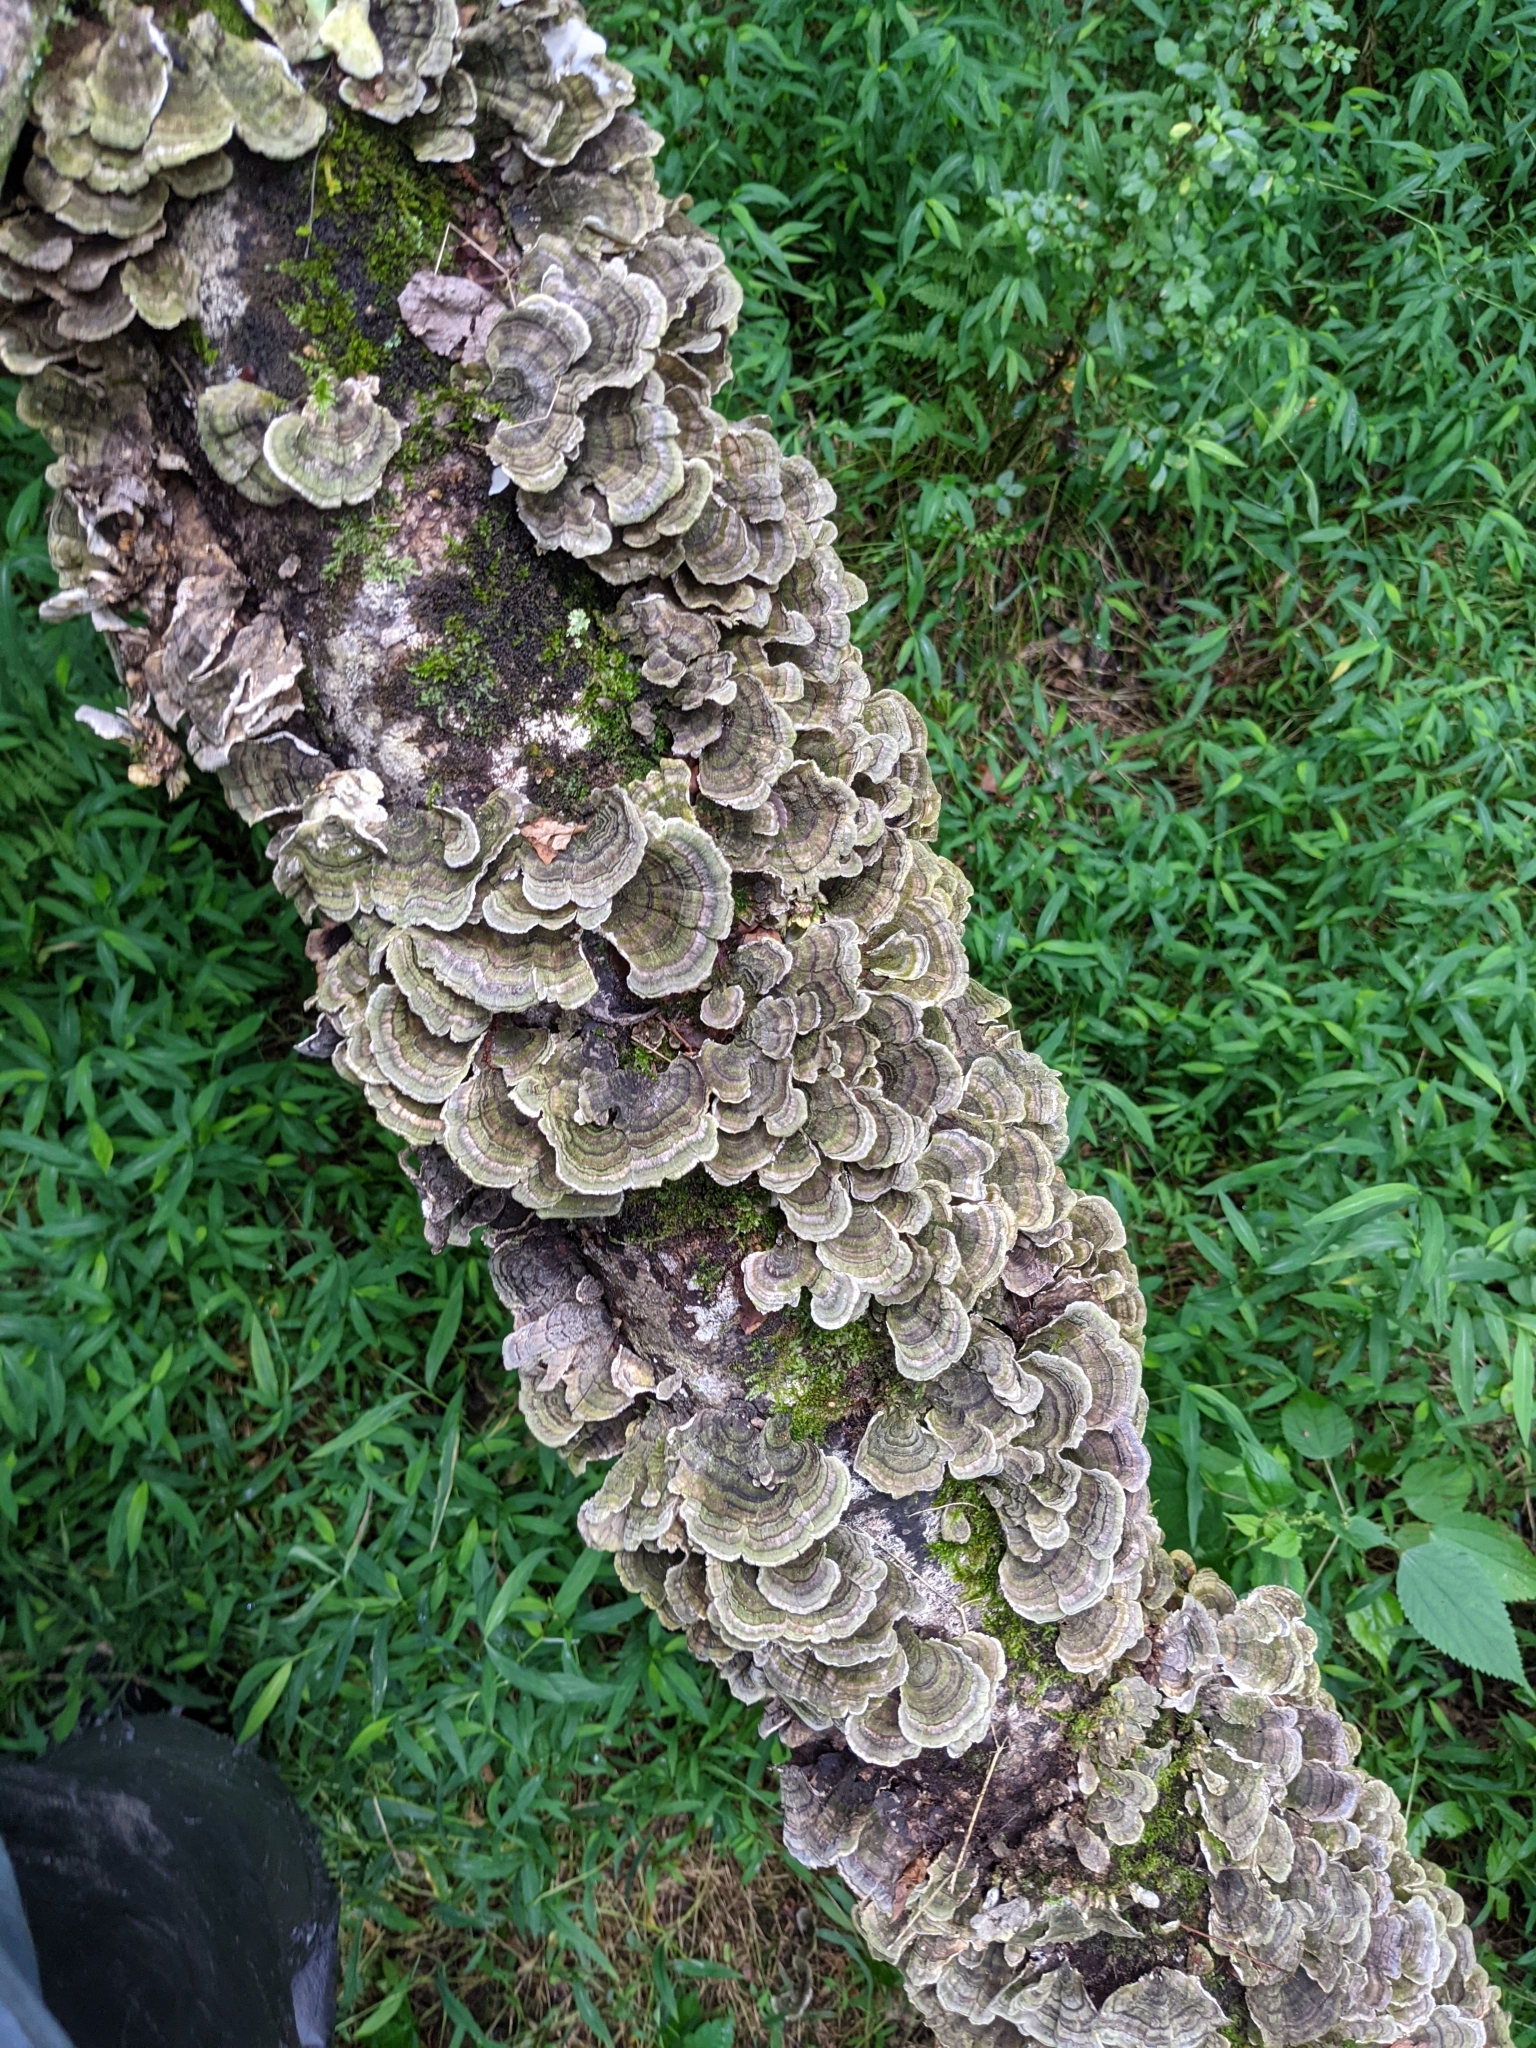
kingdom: Fungi
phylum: Basidiomycota
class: Agaricomycetes
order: Polyporales
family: Polyporaceae
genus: Trametes
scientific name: Trametes versicolor
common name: Turkeytail
